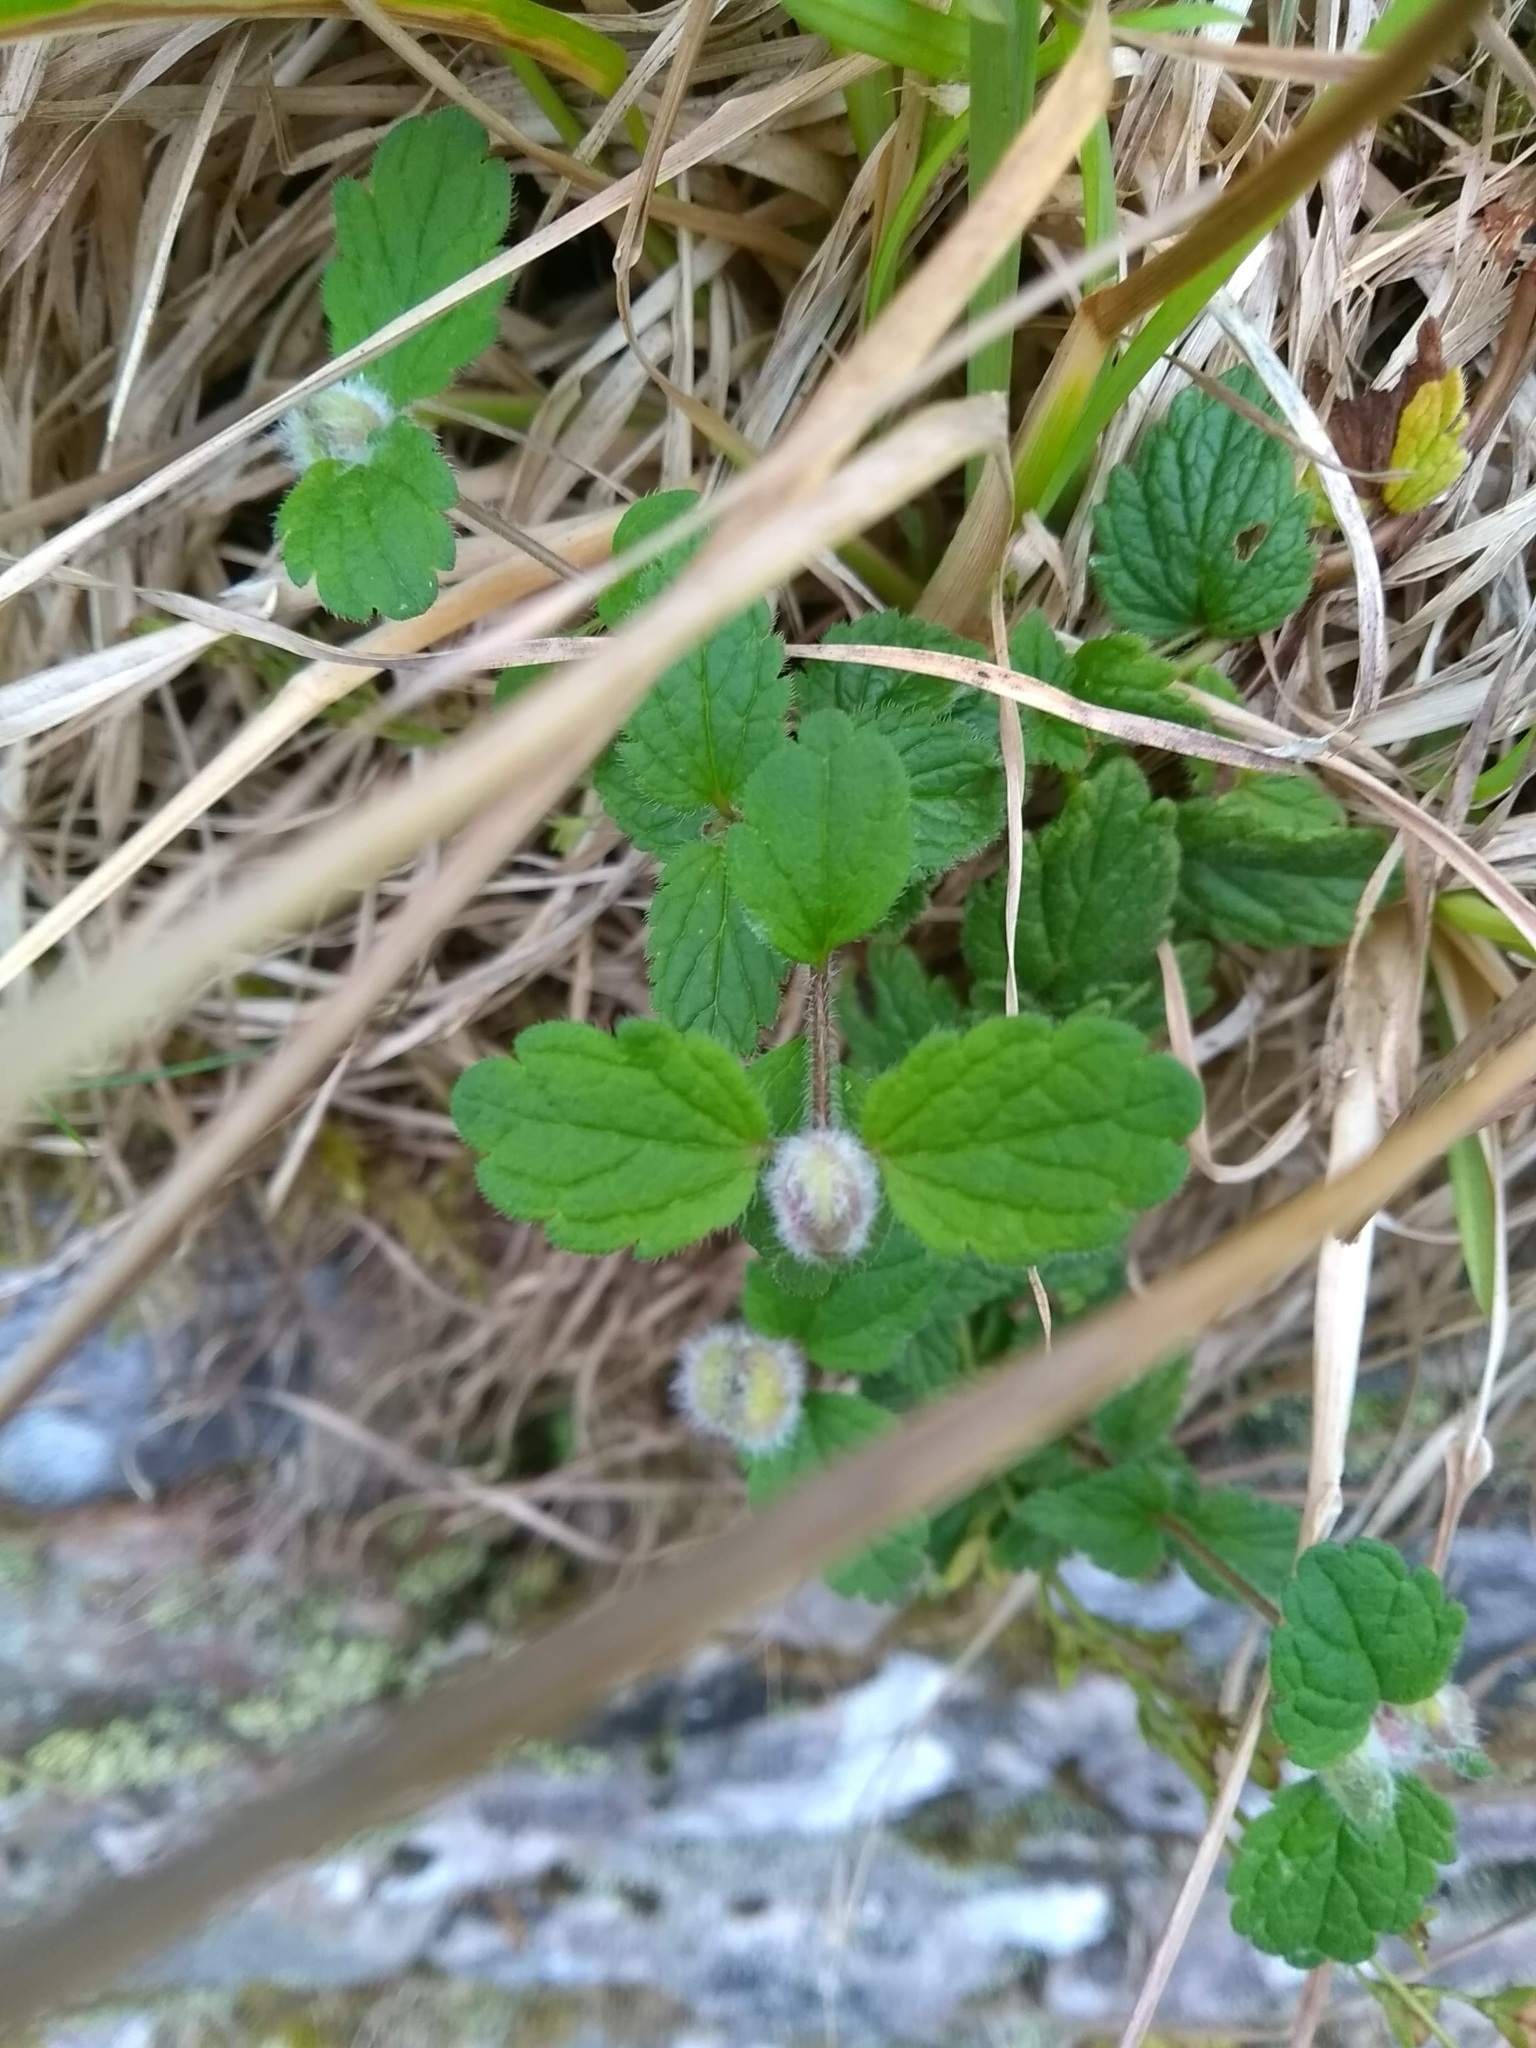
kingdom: Plantae
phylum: Tracheophyta
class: Magnoliopsida
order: Lamiales
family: Plantaginaceae
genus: Veronica
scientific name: Veronica chamaedrys
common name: Germander speedwell
